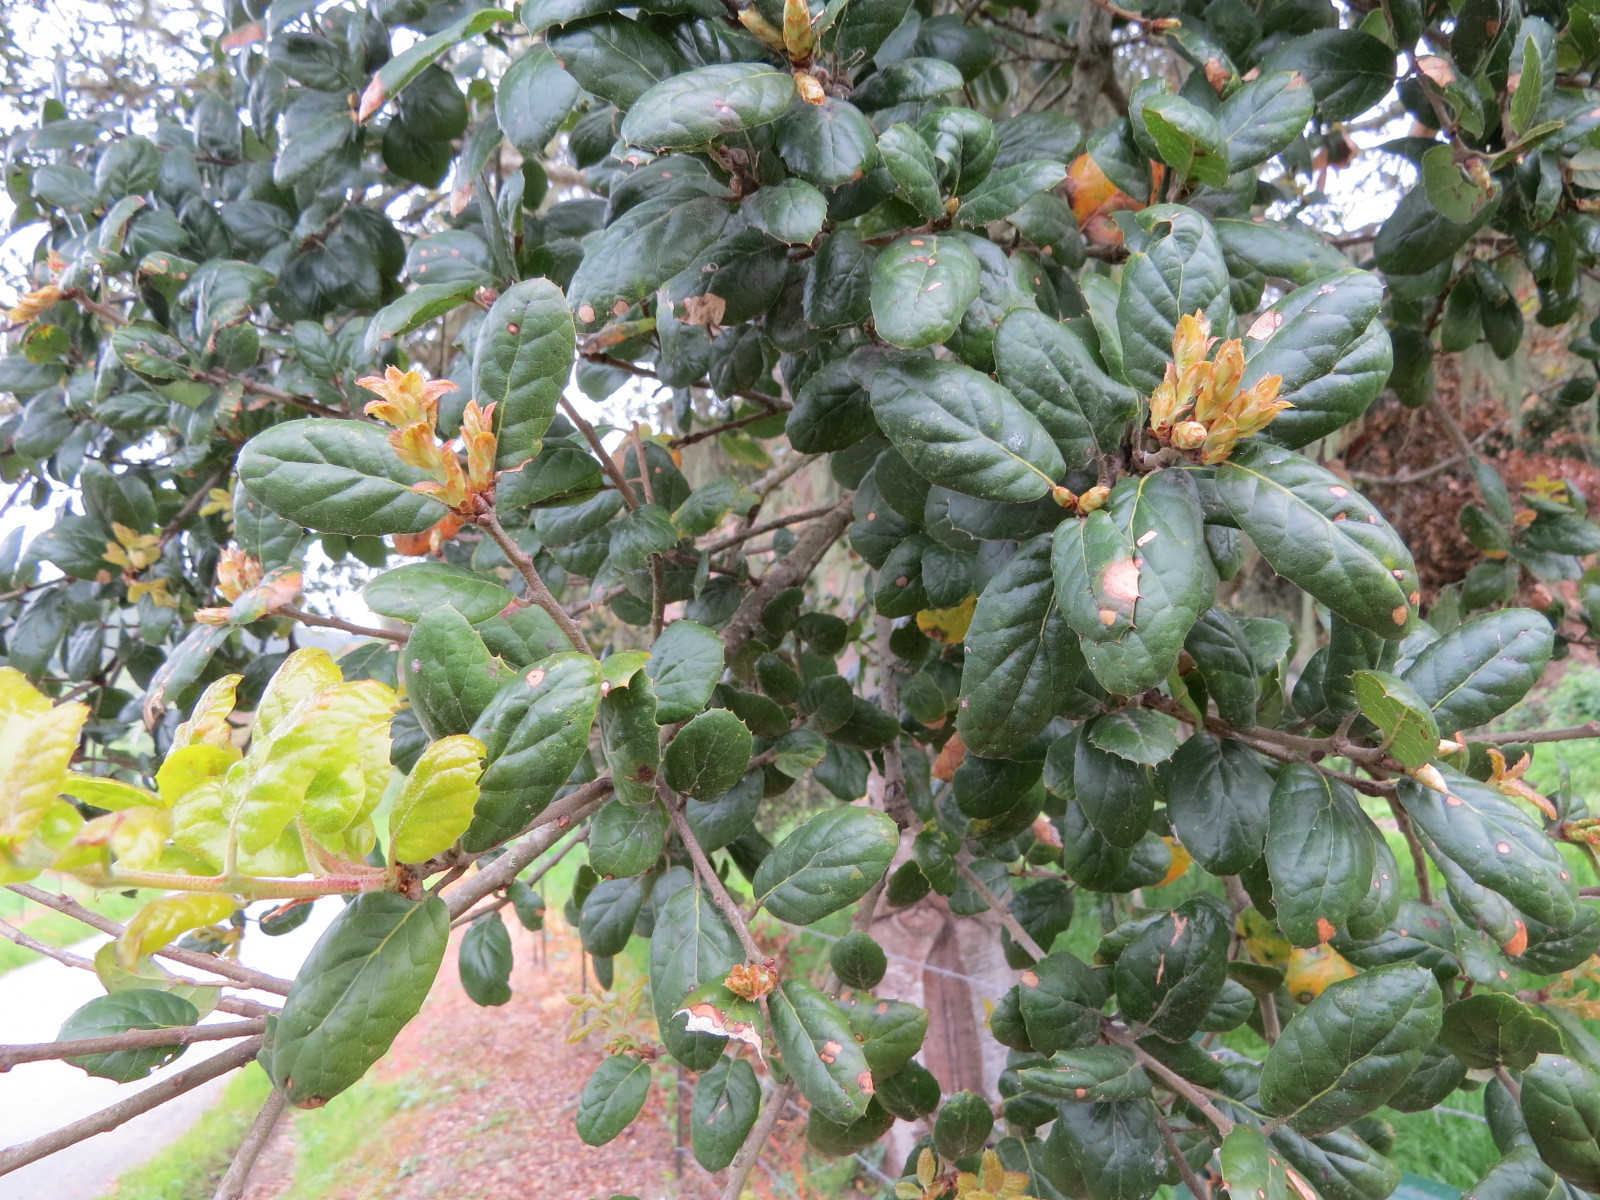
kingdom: Plantae
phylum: Tracheophyta
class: Magnoliopsida
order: Fagales
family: Fagaceae
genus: Quercus
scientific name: Quercus agrifolia
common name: California live oak
